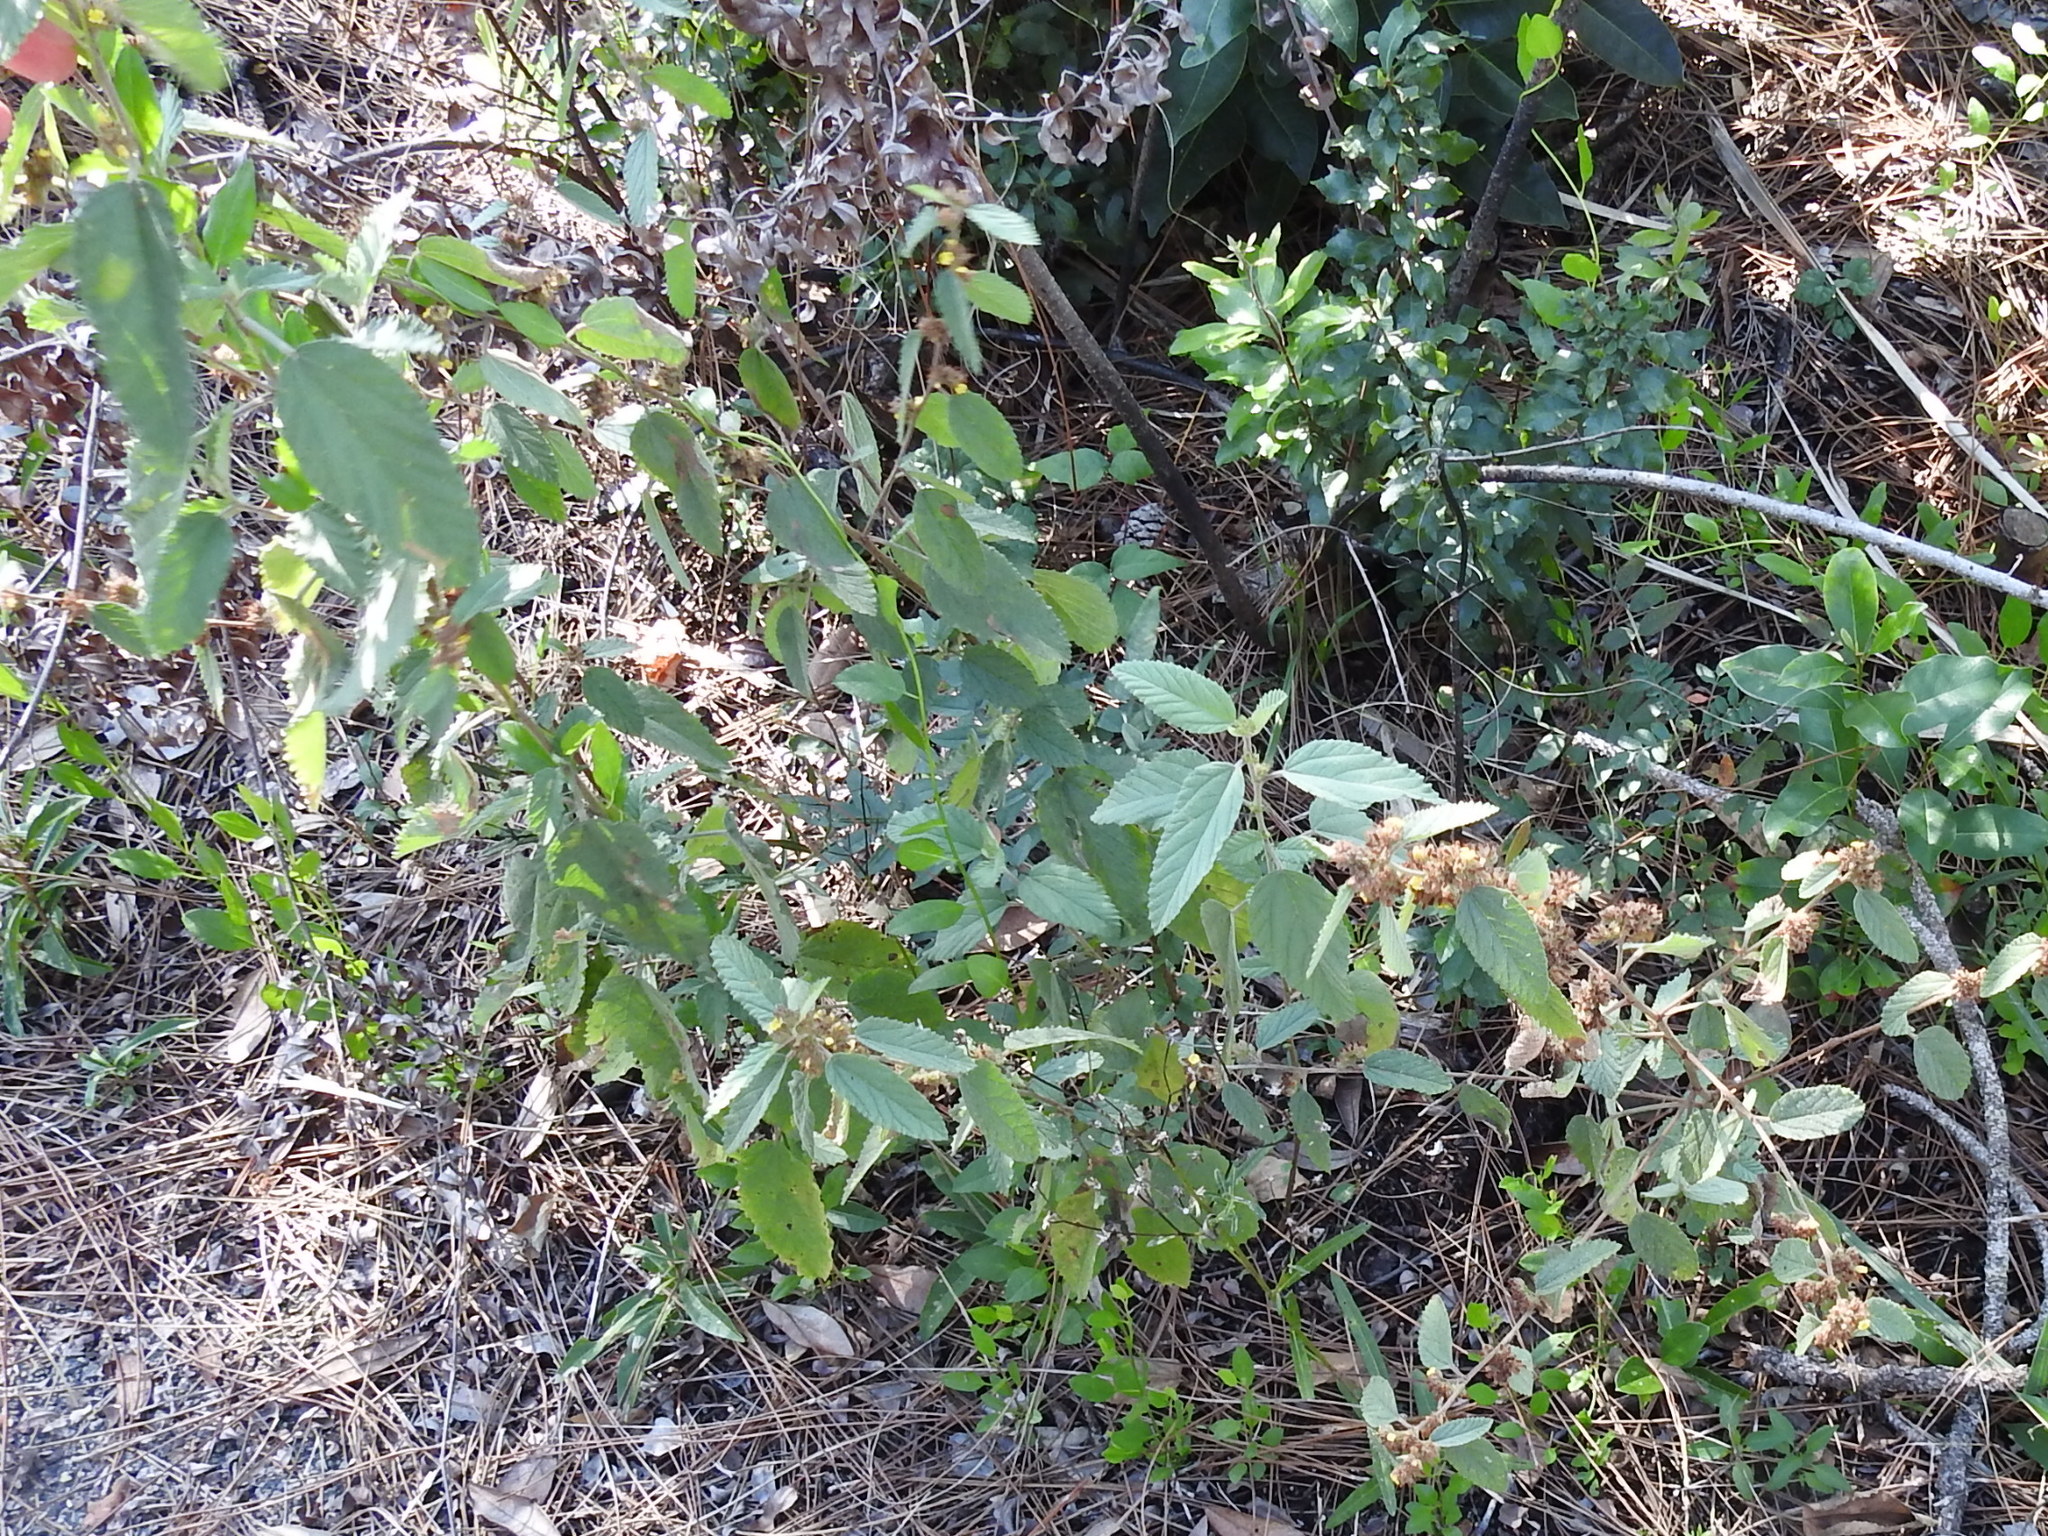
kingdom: Plantae
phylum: Tracheophyta
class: Magnoliopsida
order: Malvales
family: Malvaceae
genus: Waltheria
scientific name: Waltheria indica
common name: Leather-coat
